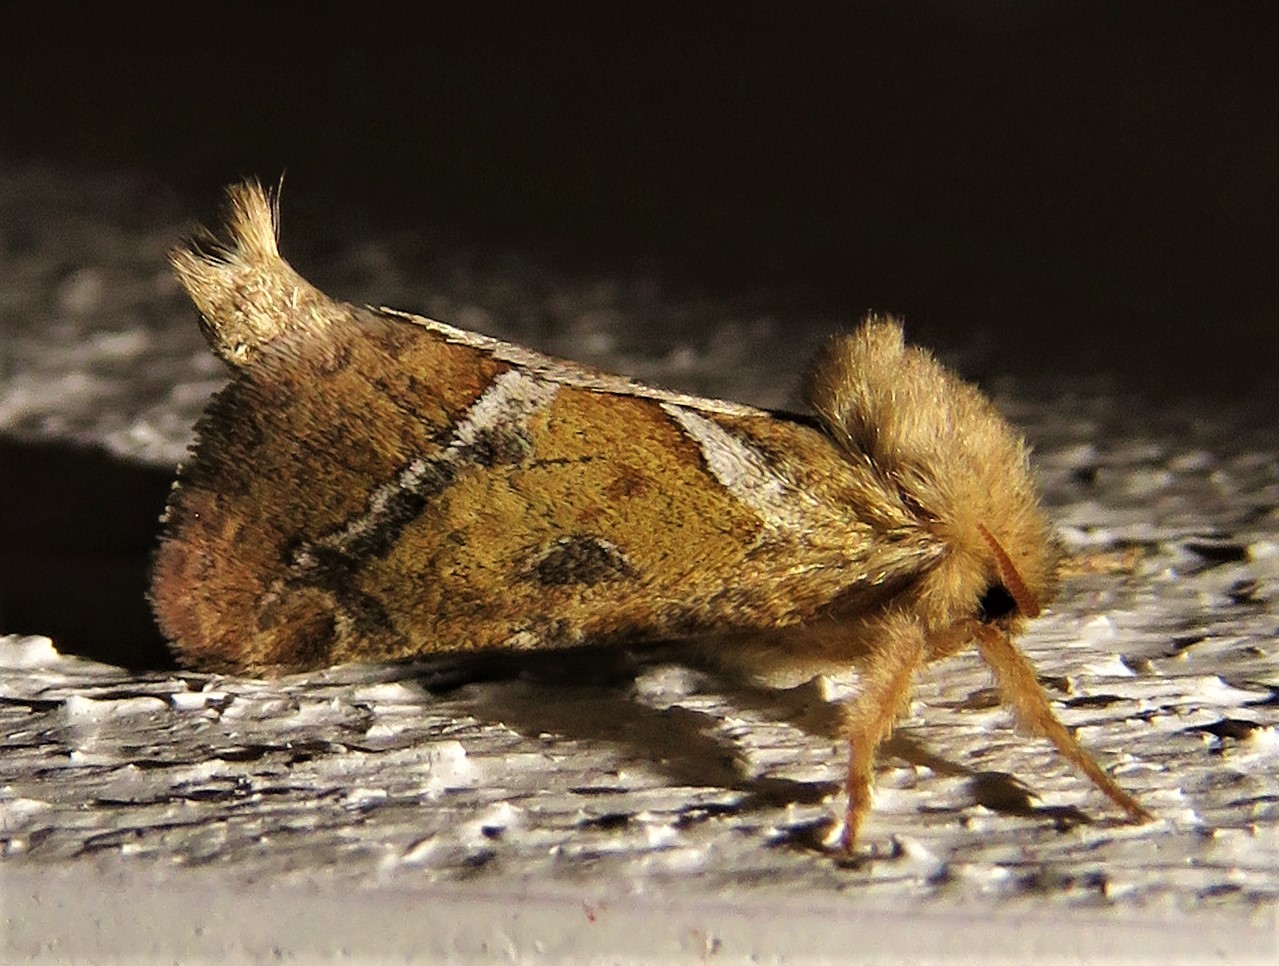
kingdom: Animalia
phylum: Arthropoda
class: Insecta
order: Lepidoptera
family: Hepialidae
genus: Triodia
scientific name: Triodia sylvina
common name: Orange swift
